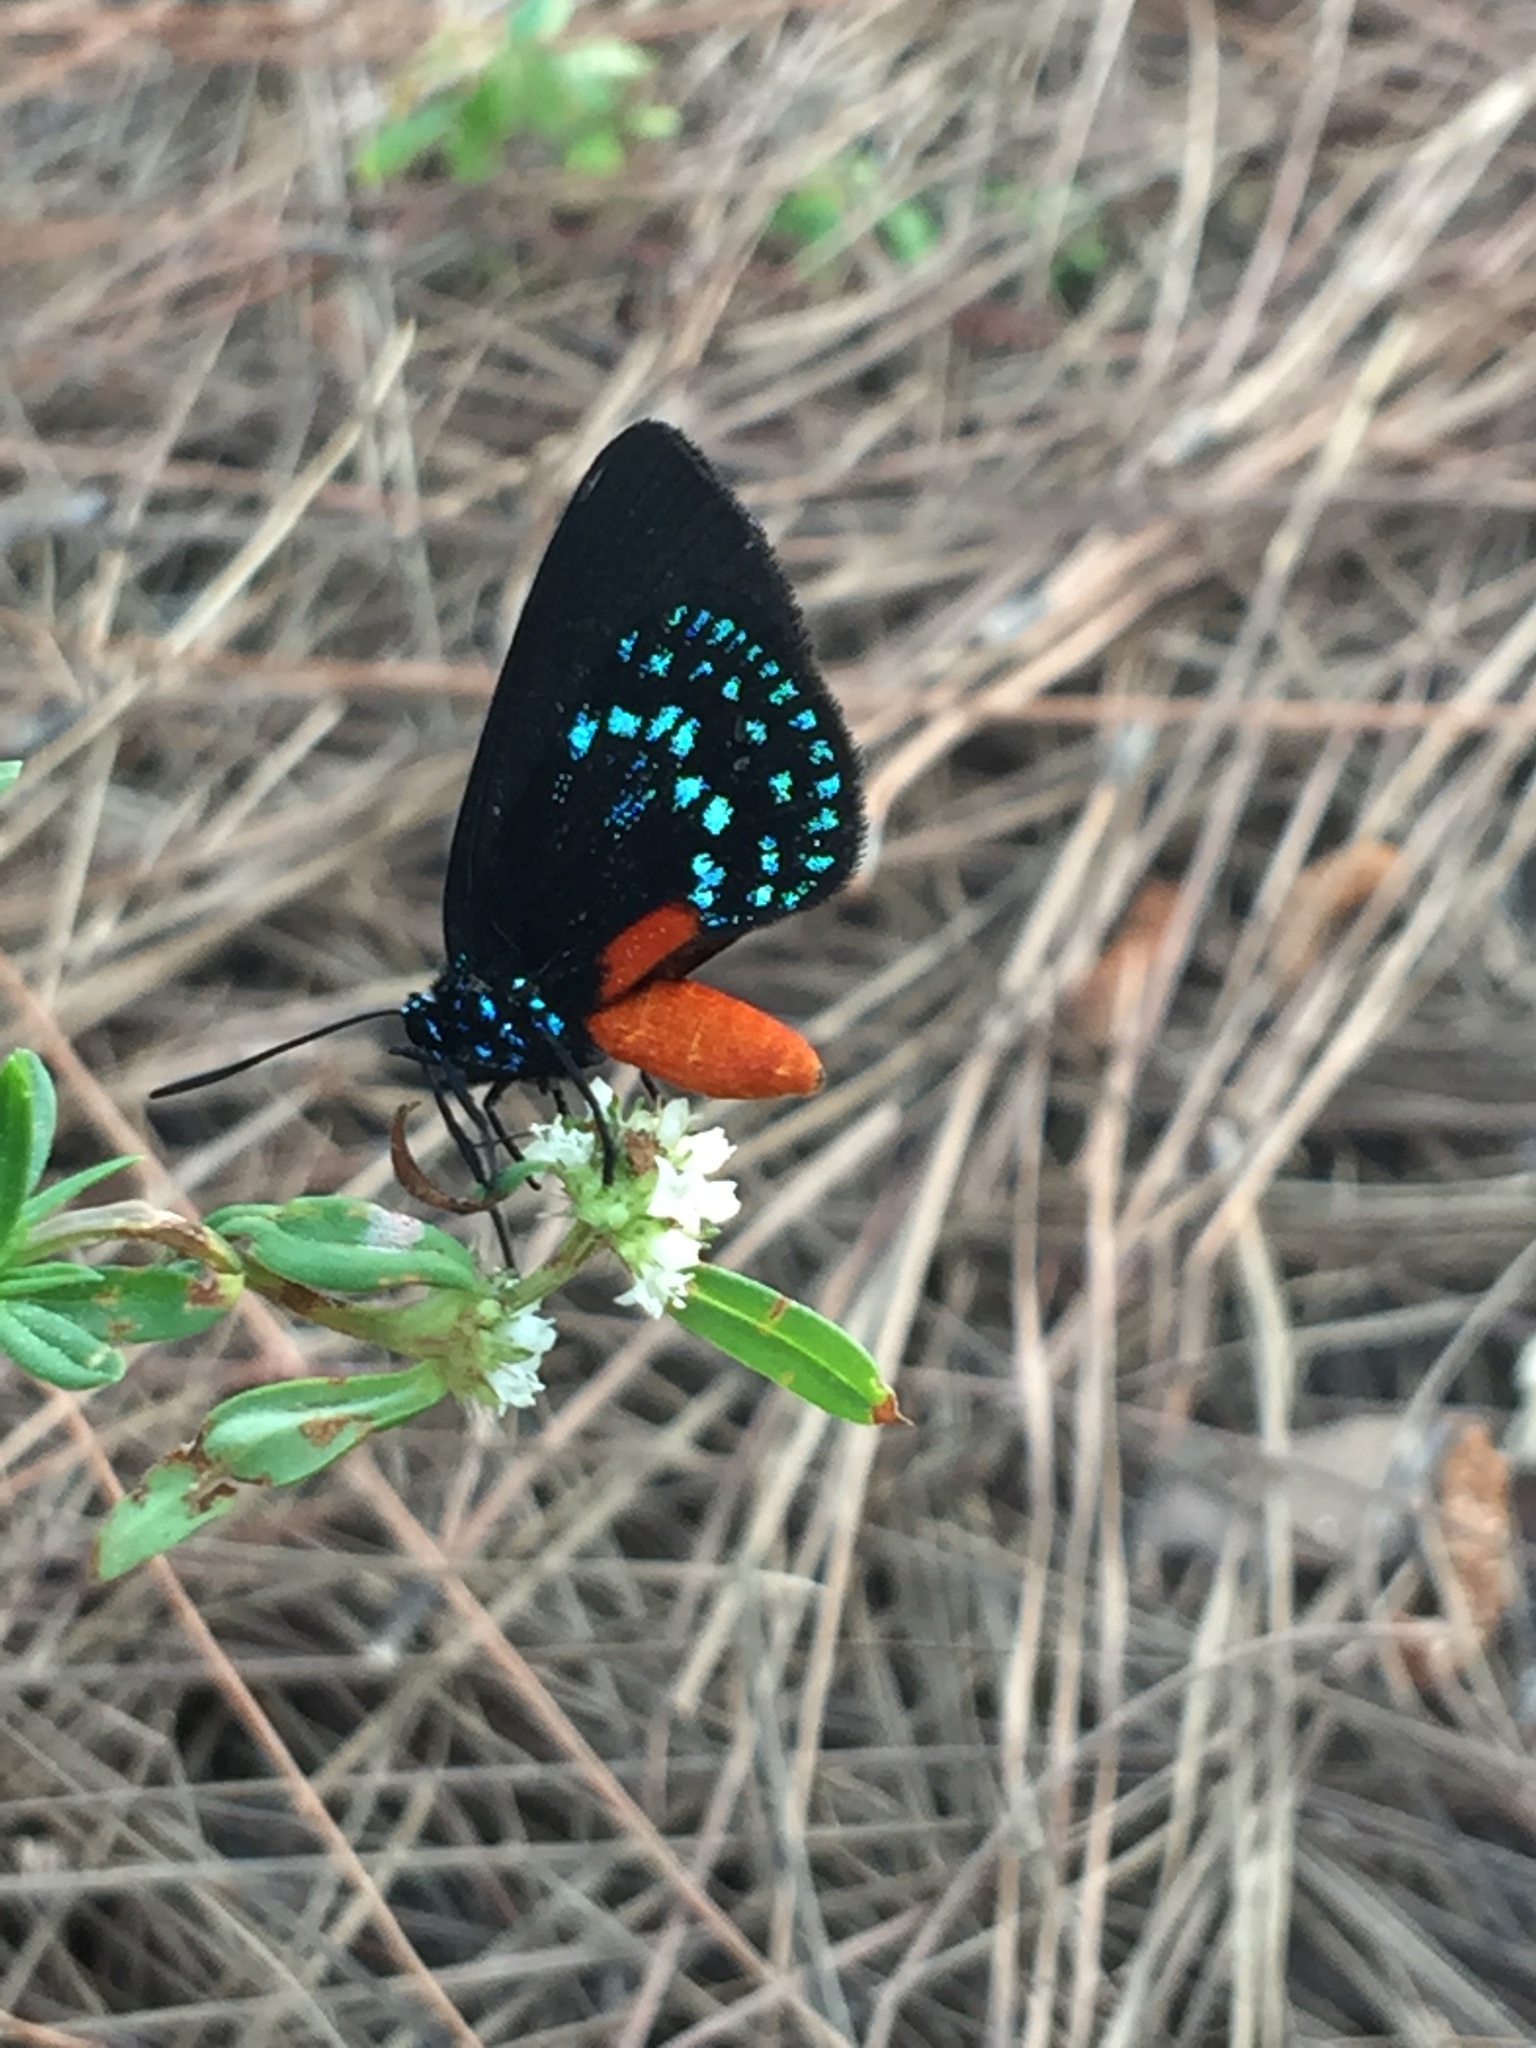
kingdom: Animalia
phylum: Arthropoda
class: Insecta
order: Lepidoptera
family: Lycaenidae
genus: Eumaeus
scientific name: Eumaeus atala
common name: Atala
